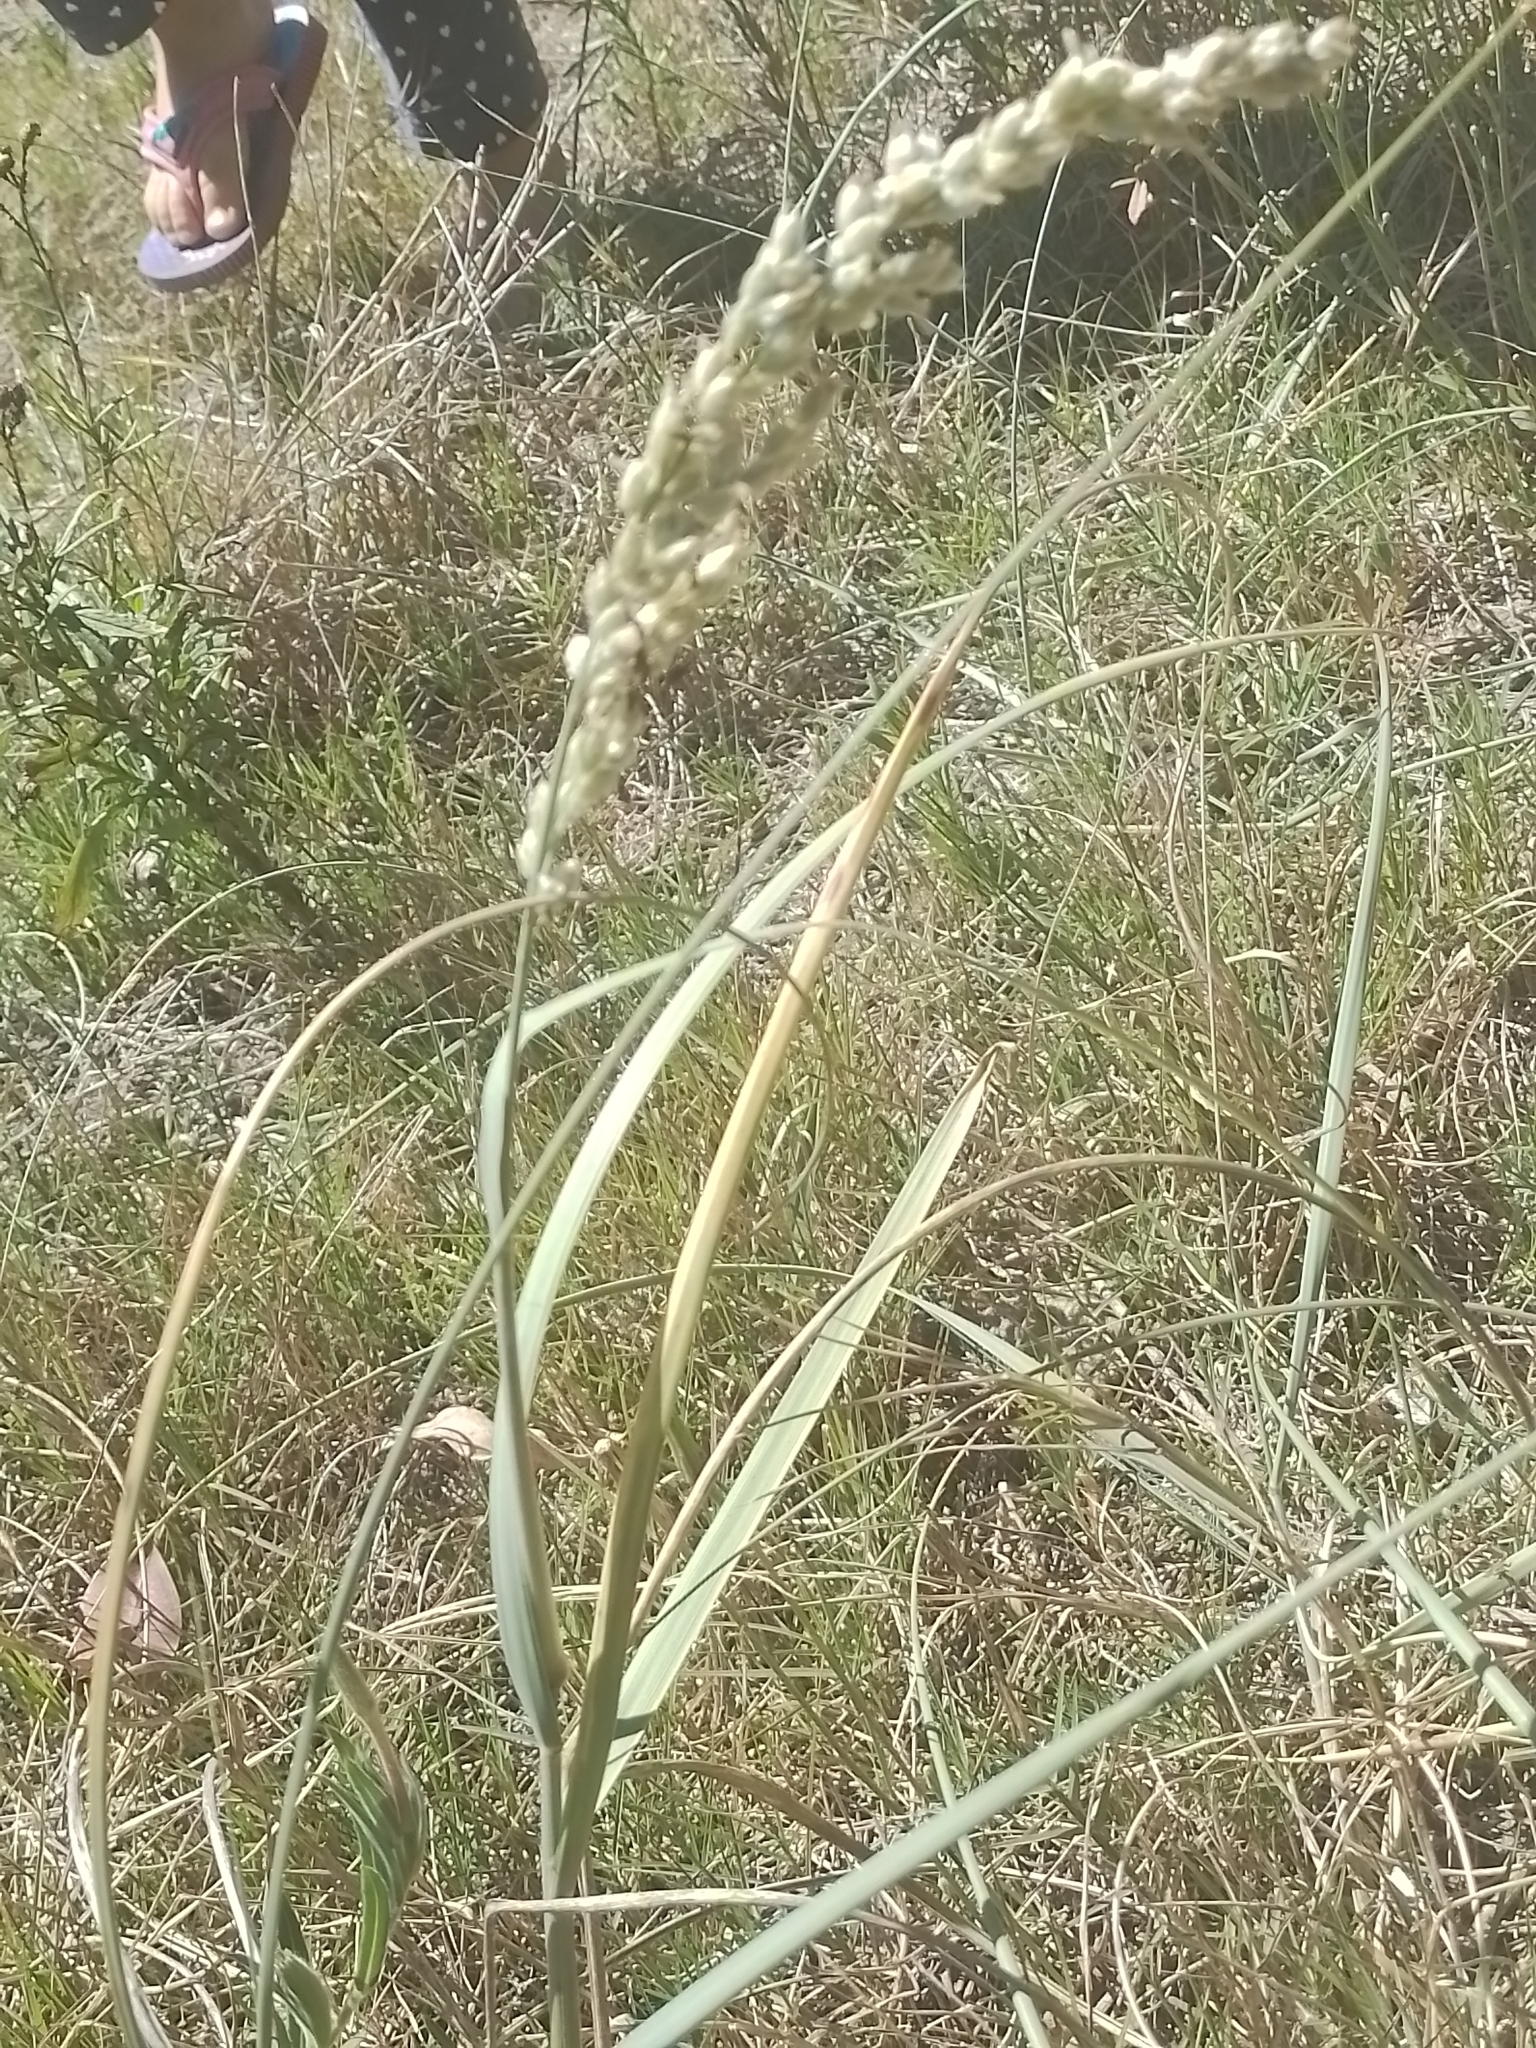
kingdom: Plantae
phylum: Tracheophyta
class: Liliopsida
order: Poales
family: Poaceae
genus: Panicum
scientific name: Panicum racemosum
